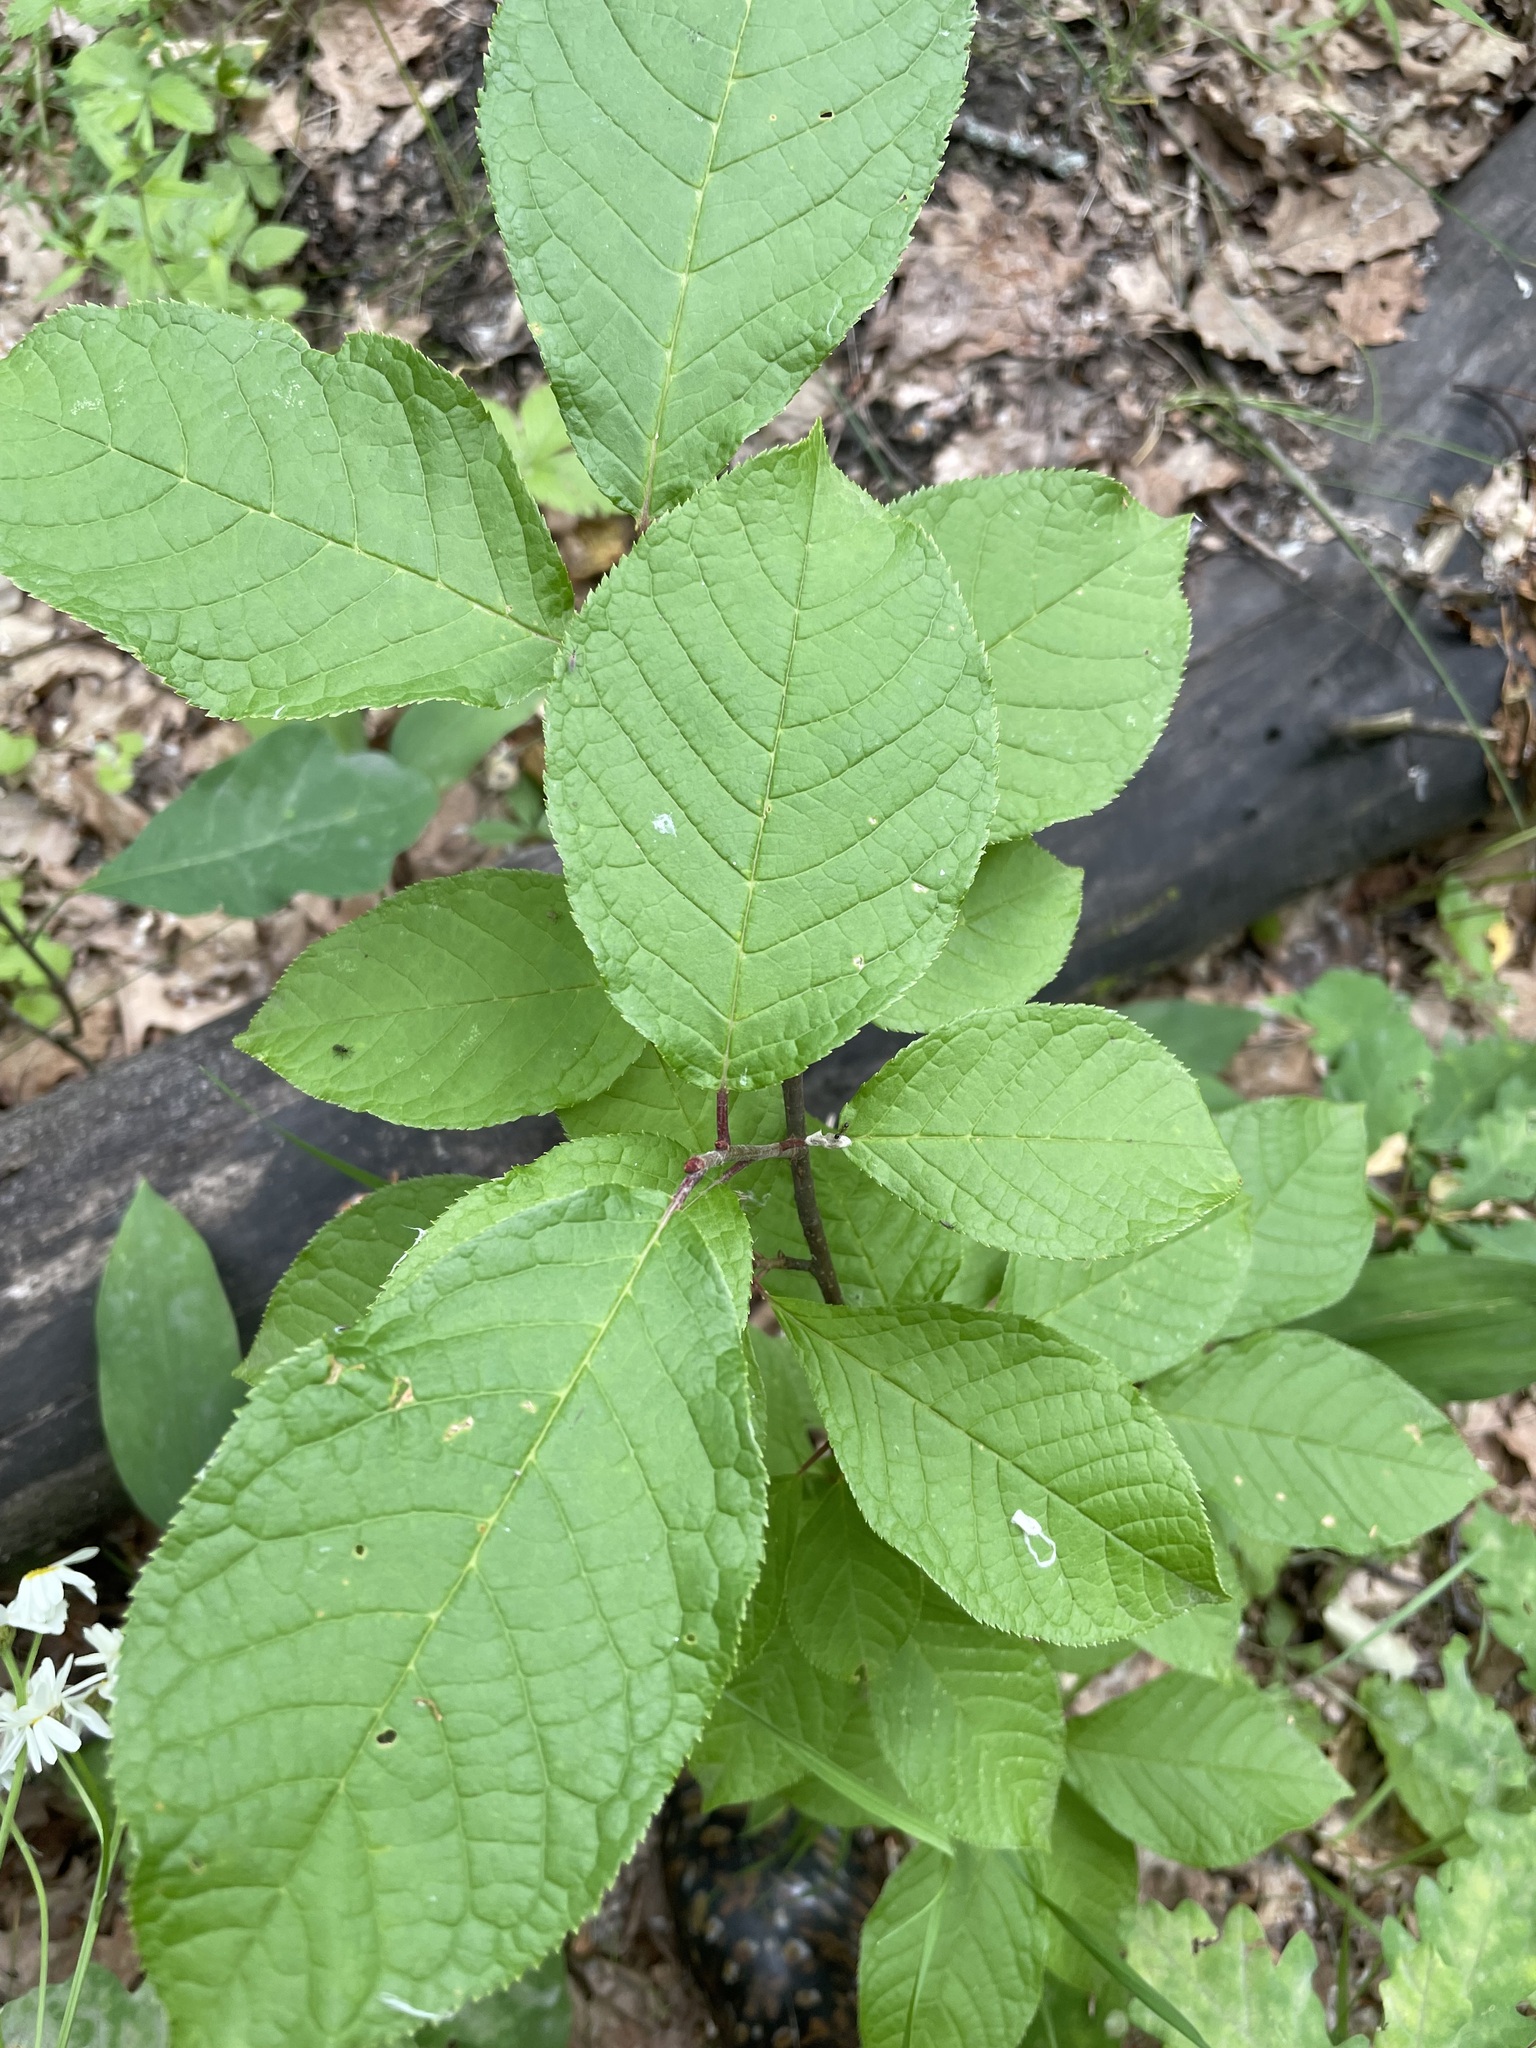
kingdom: Plantae
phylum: Tracheophyta
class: Magnoliopsida
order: Rosales
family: Rosaceae
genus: Prunus
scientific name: Prunus padus
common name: Bird cherry
